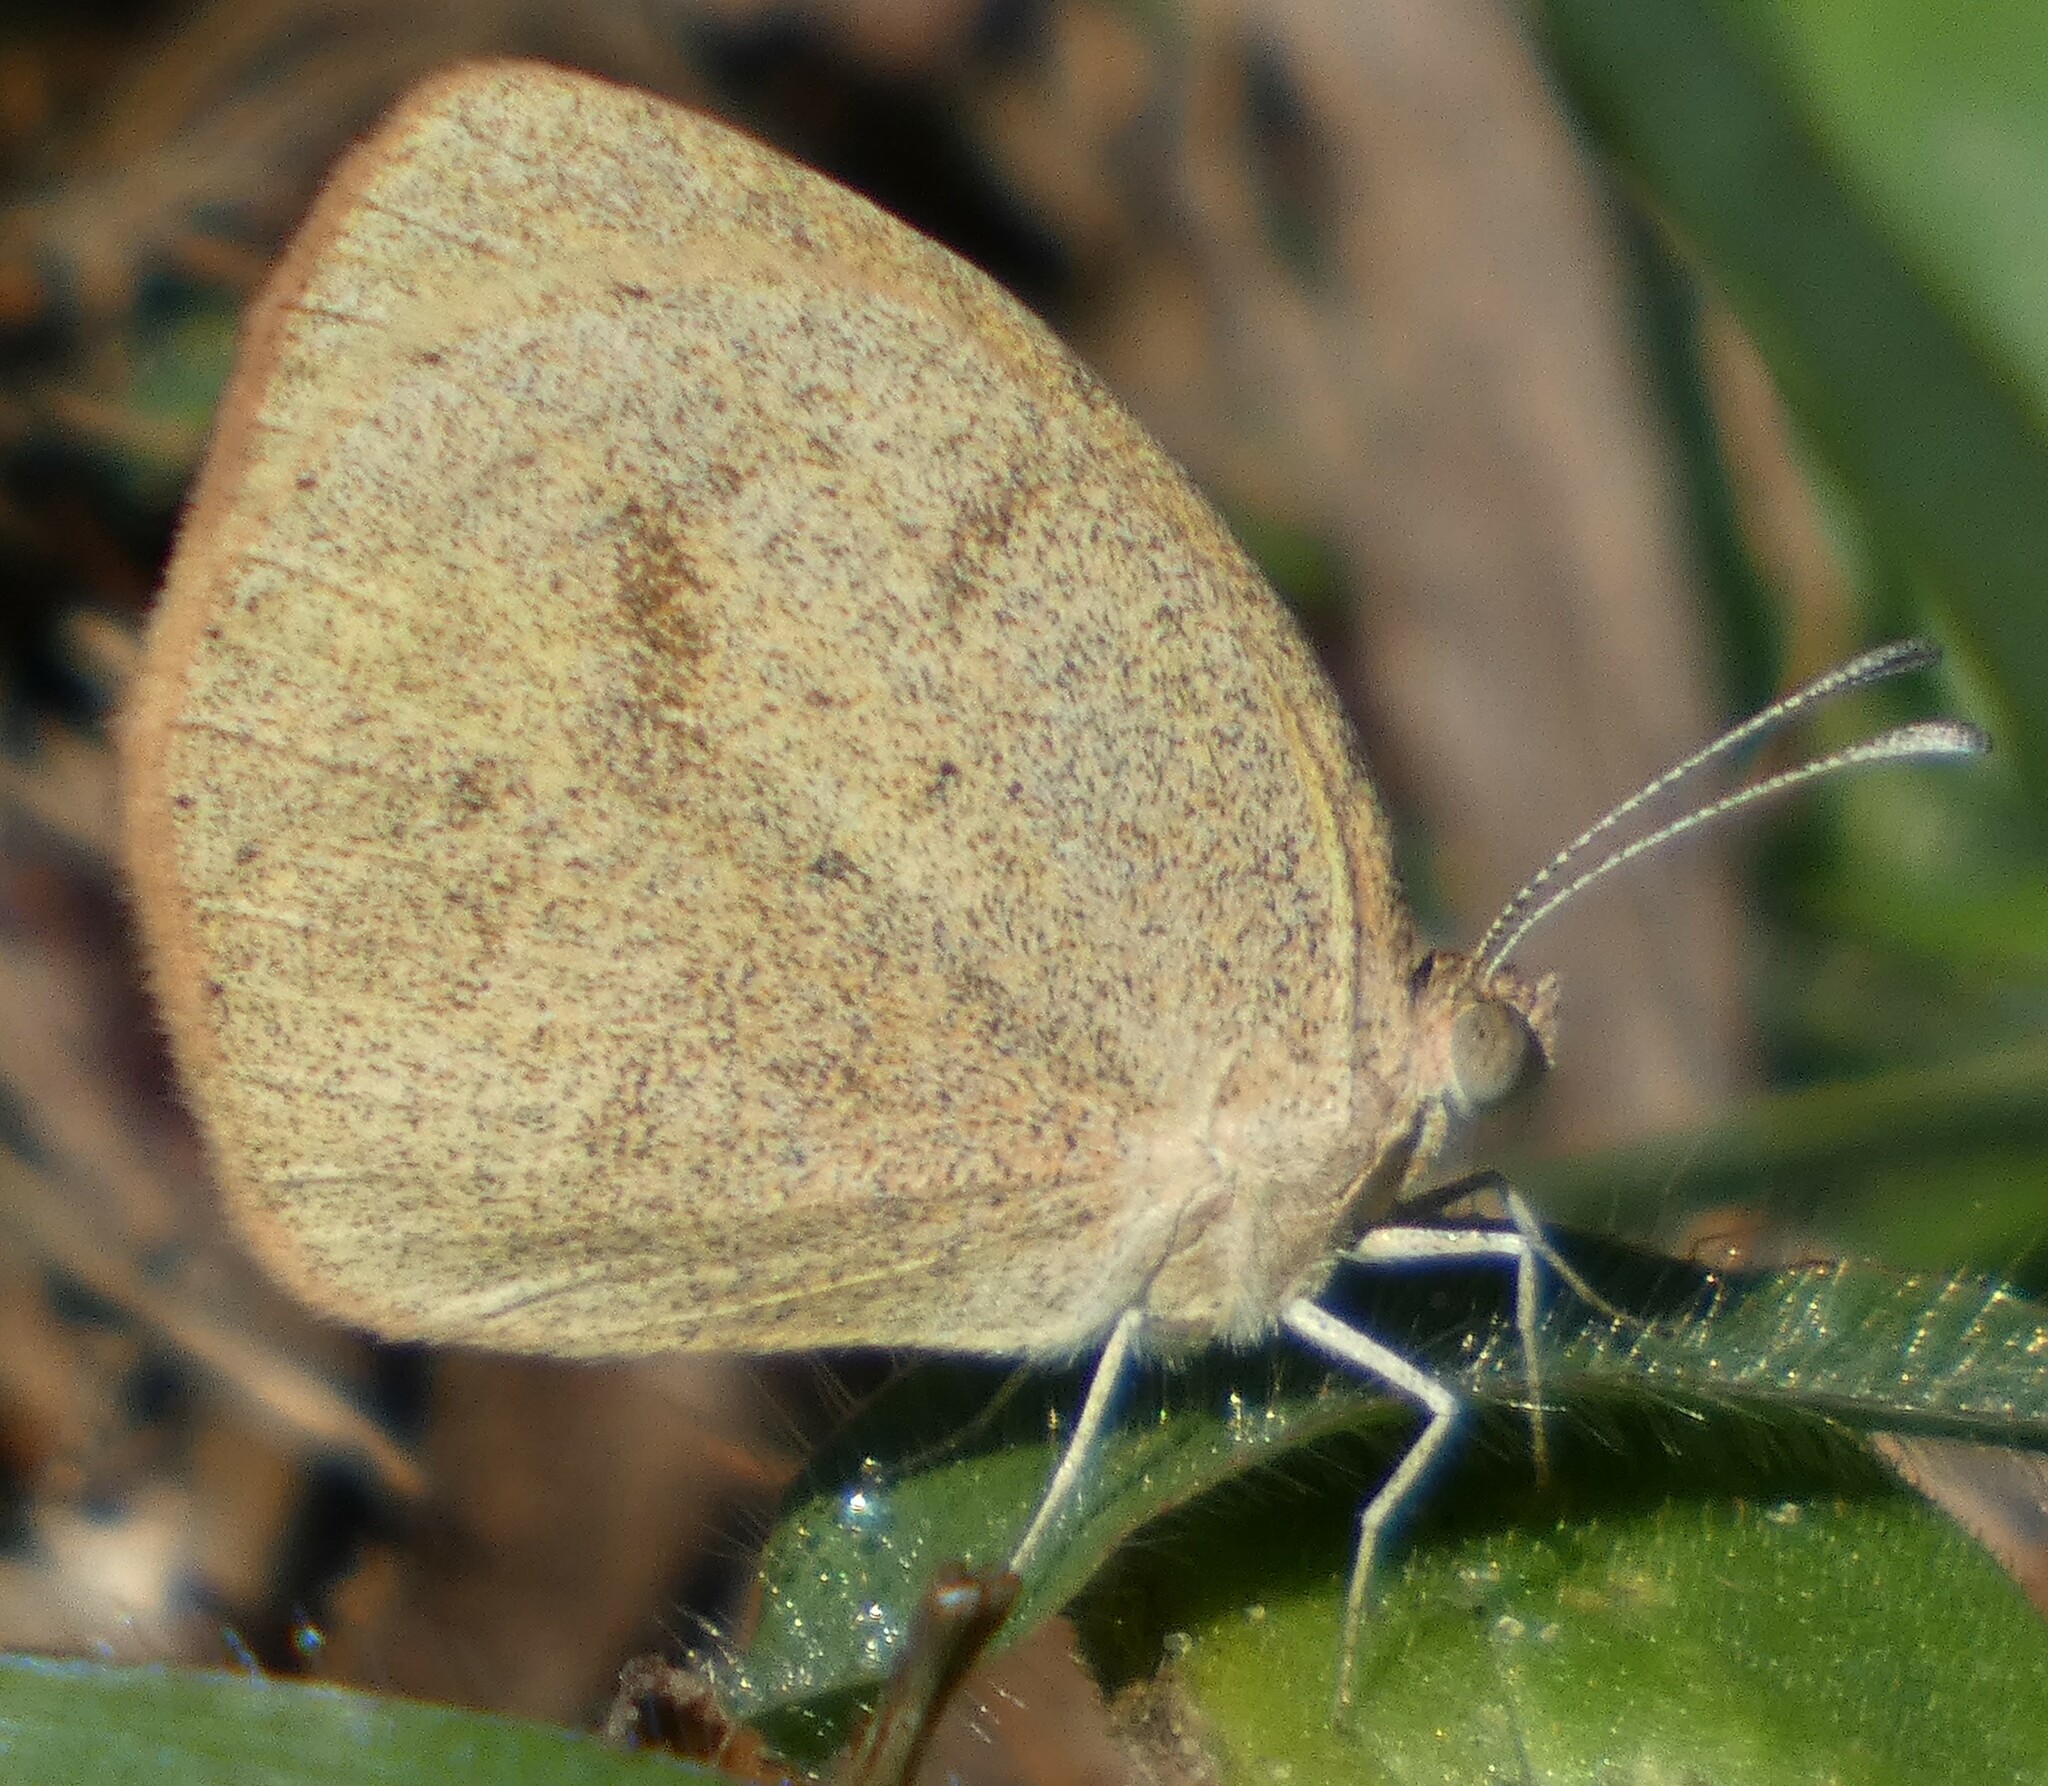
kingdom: Animalia
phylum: Arthropoda
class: Insecta
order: Lepidoptera
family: Pieridae
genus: Eurema
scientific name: Eurema daira
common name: Barred sulphur
